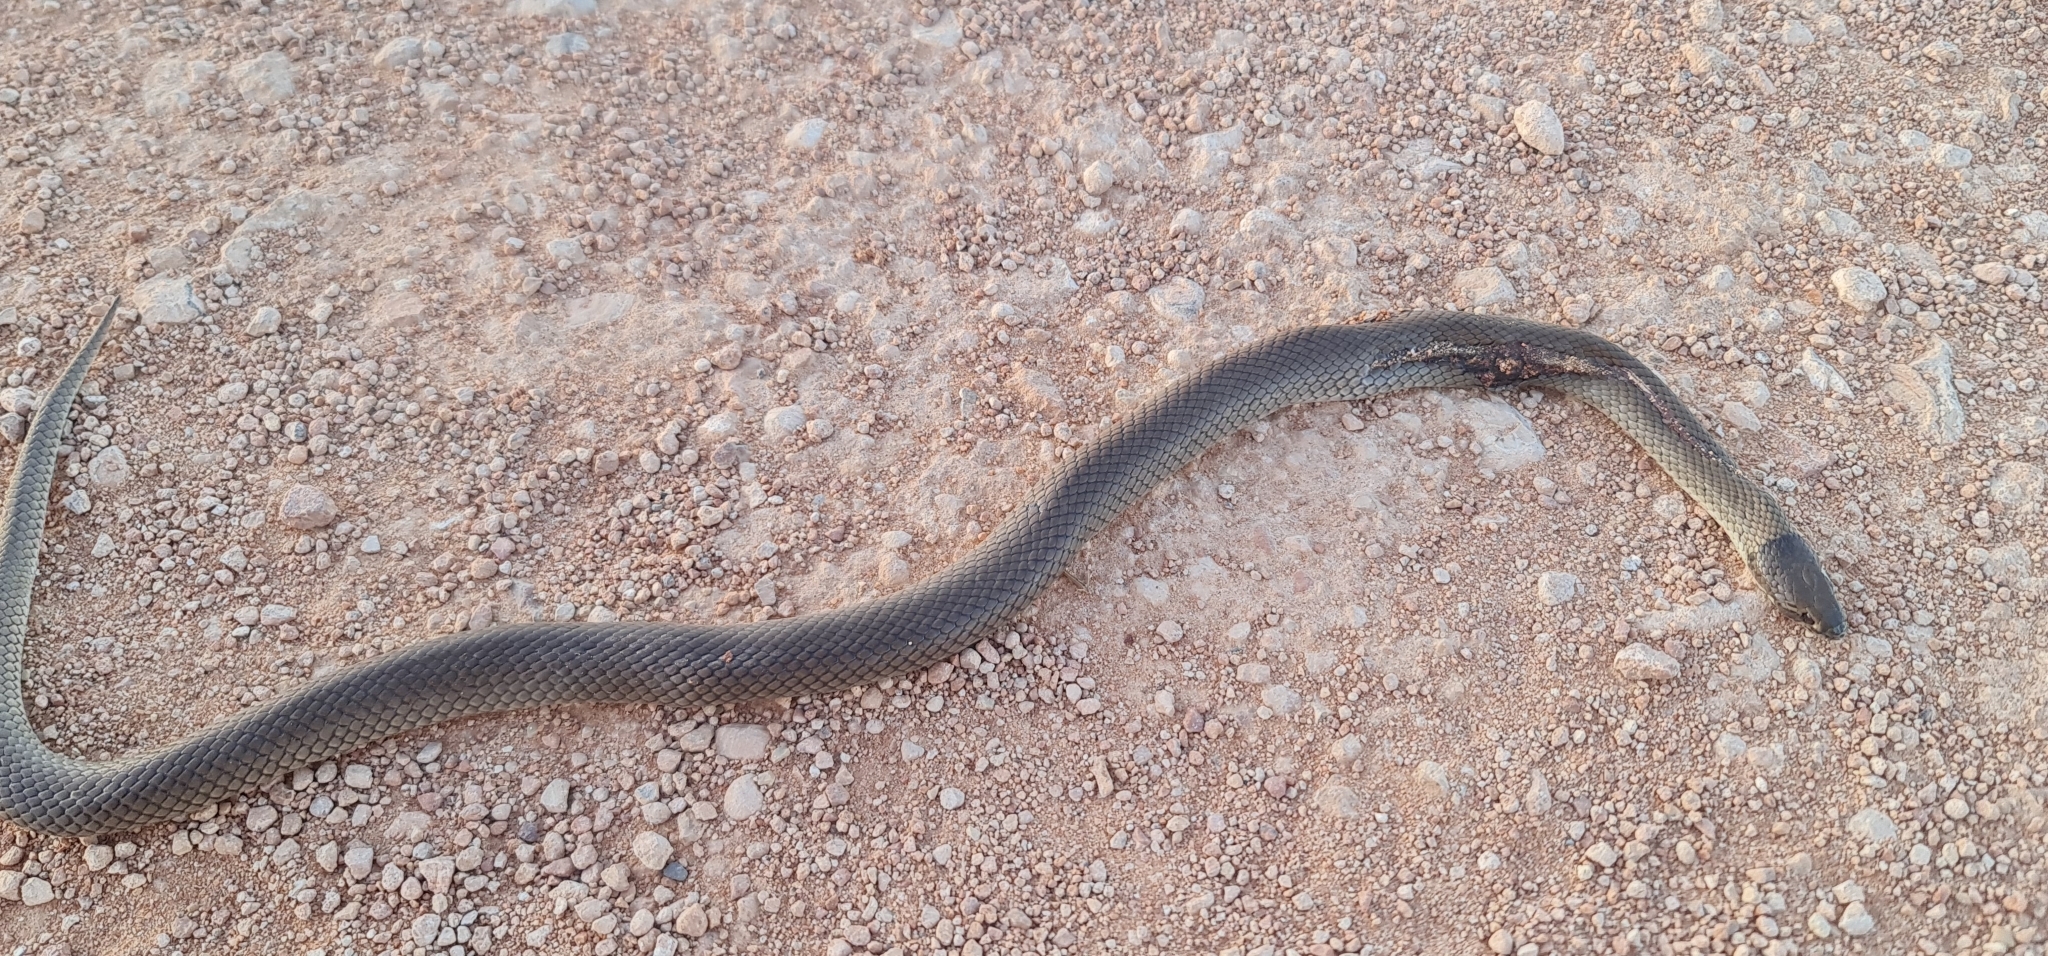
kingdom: Animalia
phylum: Chordata
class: Squamata
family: Elapidae
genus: Suta
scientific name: Suta suta
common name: Curl snake
